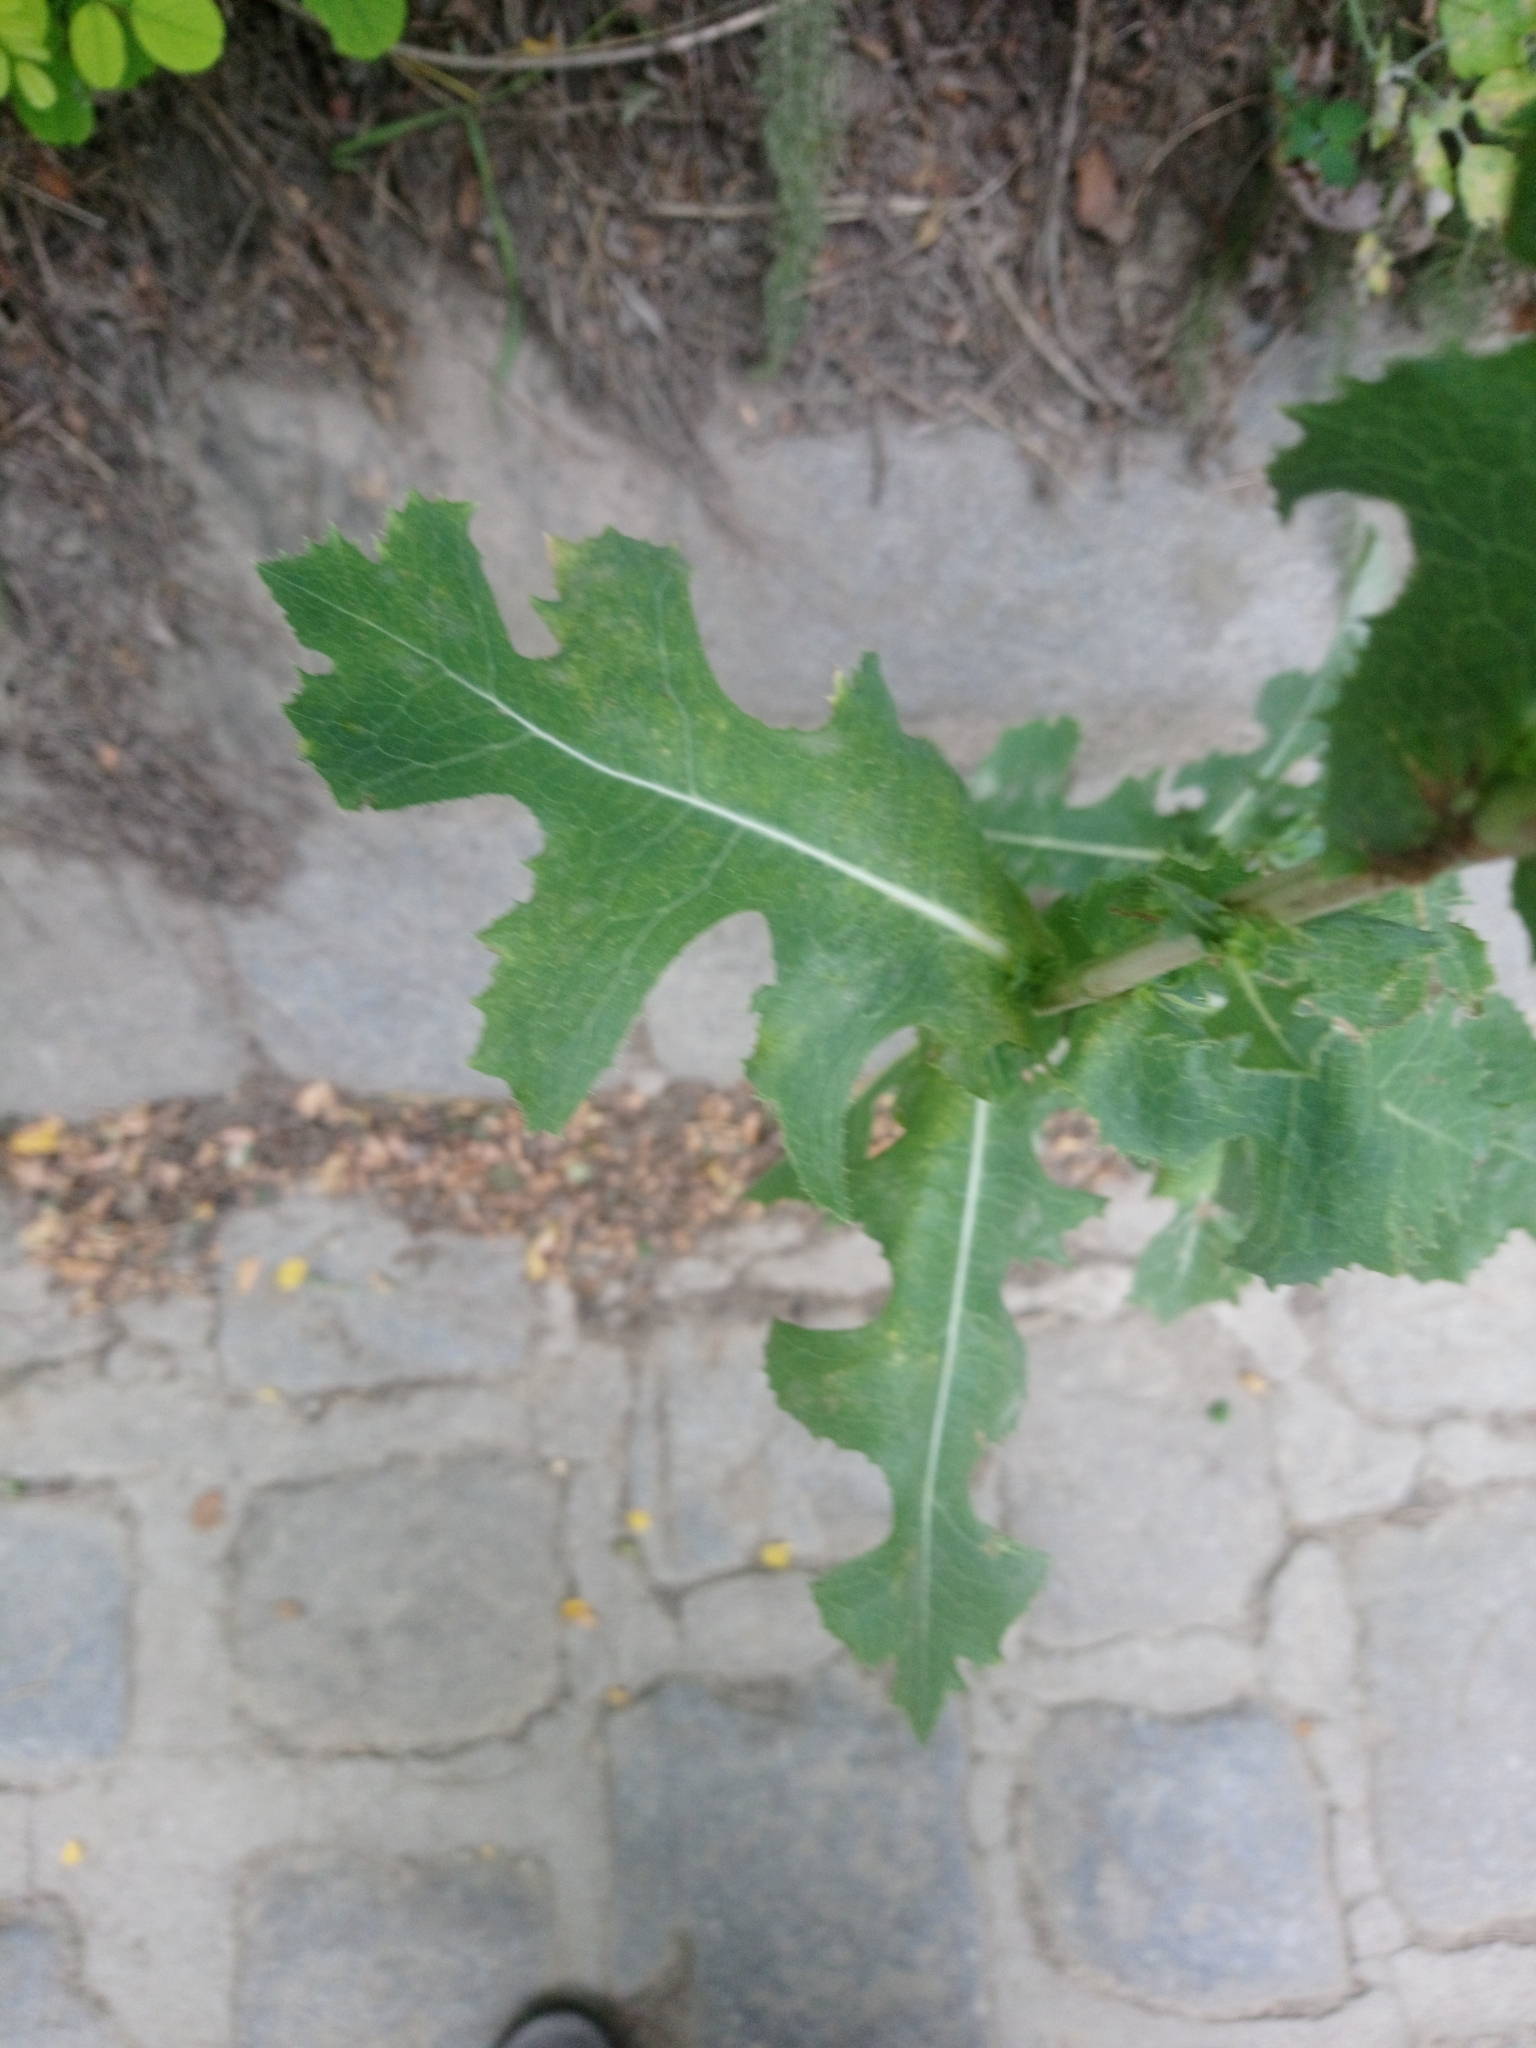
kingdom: Plantae
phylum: Tracheophyta
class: Magnoliopsida
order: Asterales
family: Asteraceae
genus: Lactuca
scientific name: Lactuca serriola
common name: Prickly lettuce
